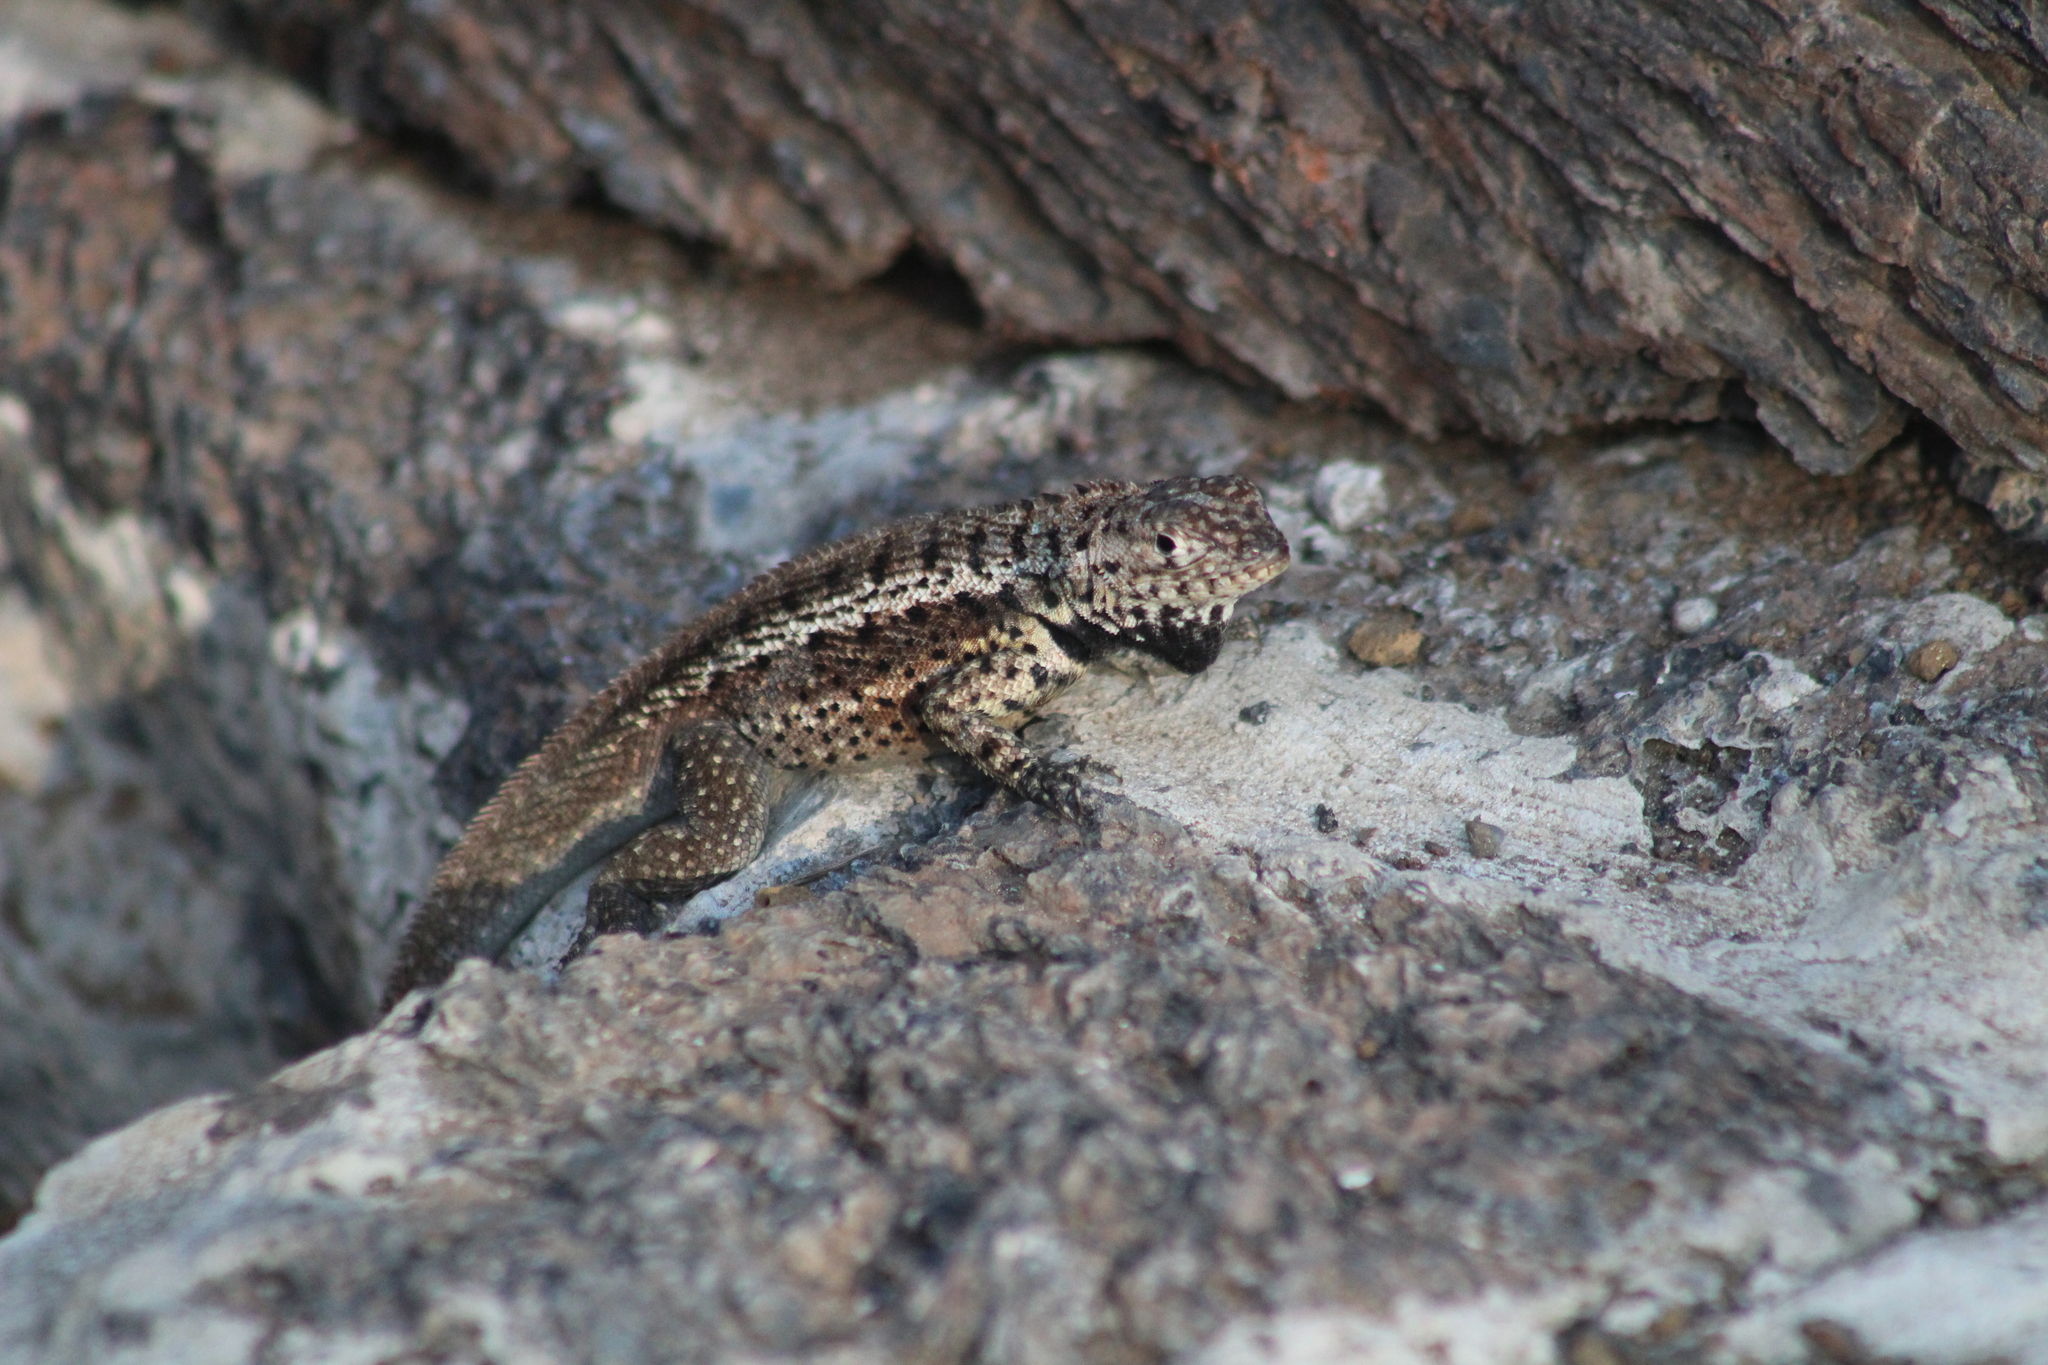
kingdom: Animalia
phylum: Chordata
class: Squamata
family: Tropiduridae
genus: Microlophus
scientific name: Microlophus albemarlensis
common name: Galapagos lava lizard
